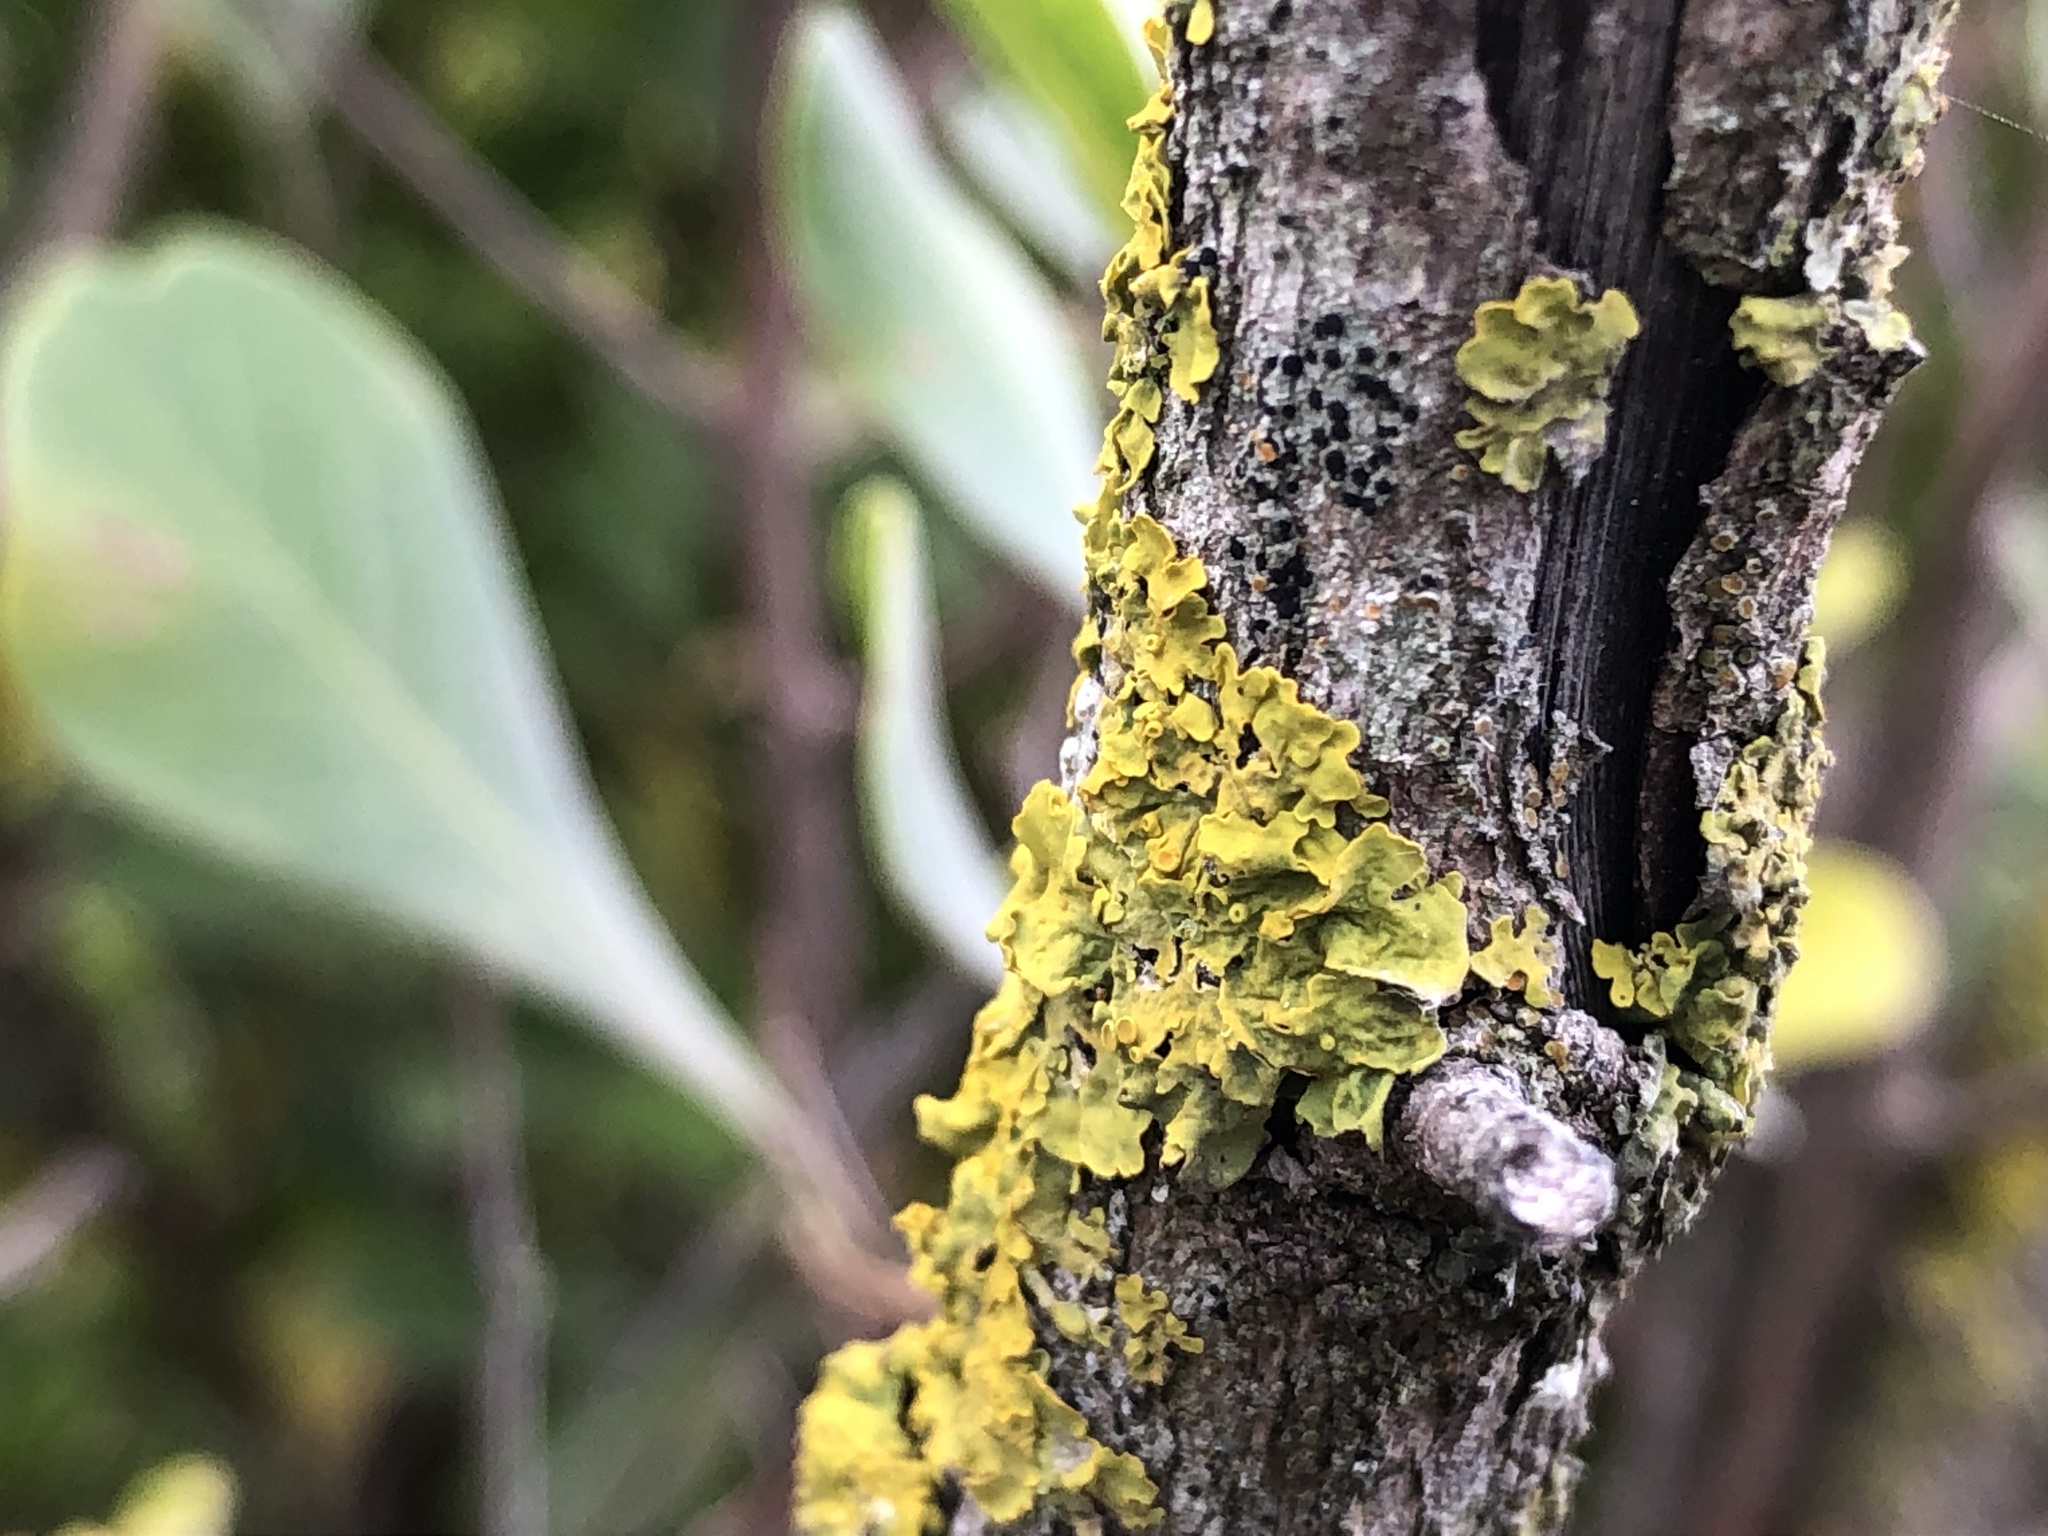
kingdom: Fungi
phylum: Ascomycota
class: Lecanoromycetes
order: Teloschistales
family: Teloschistaceae
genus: Xanthoria
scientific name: Xanthoria parietina
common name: Common orange lichen
